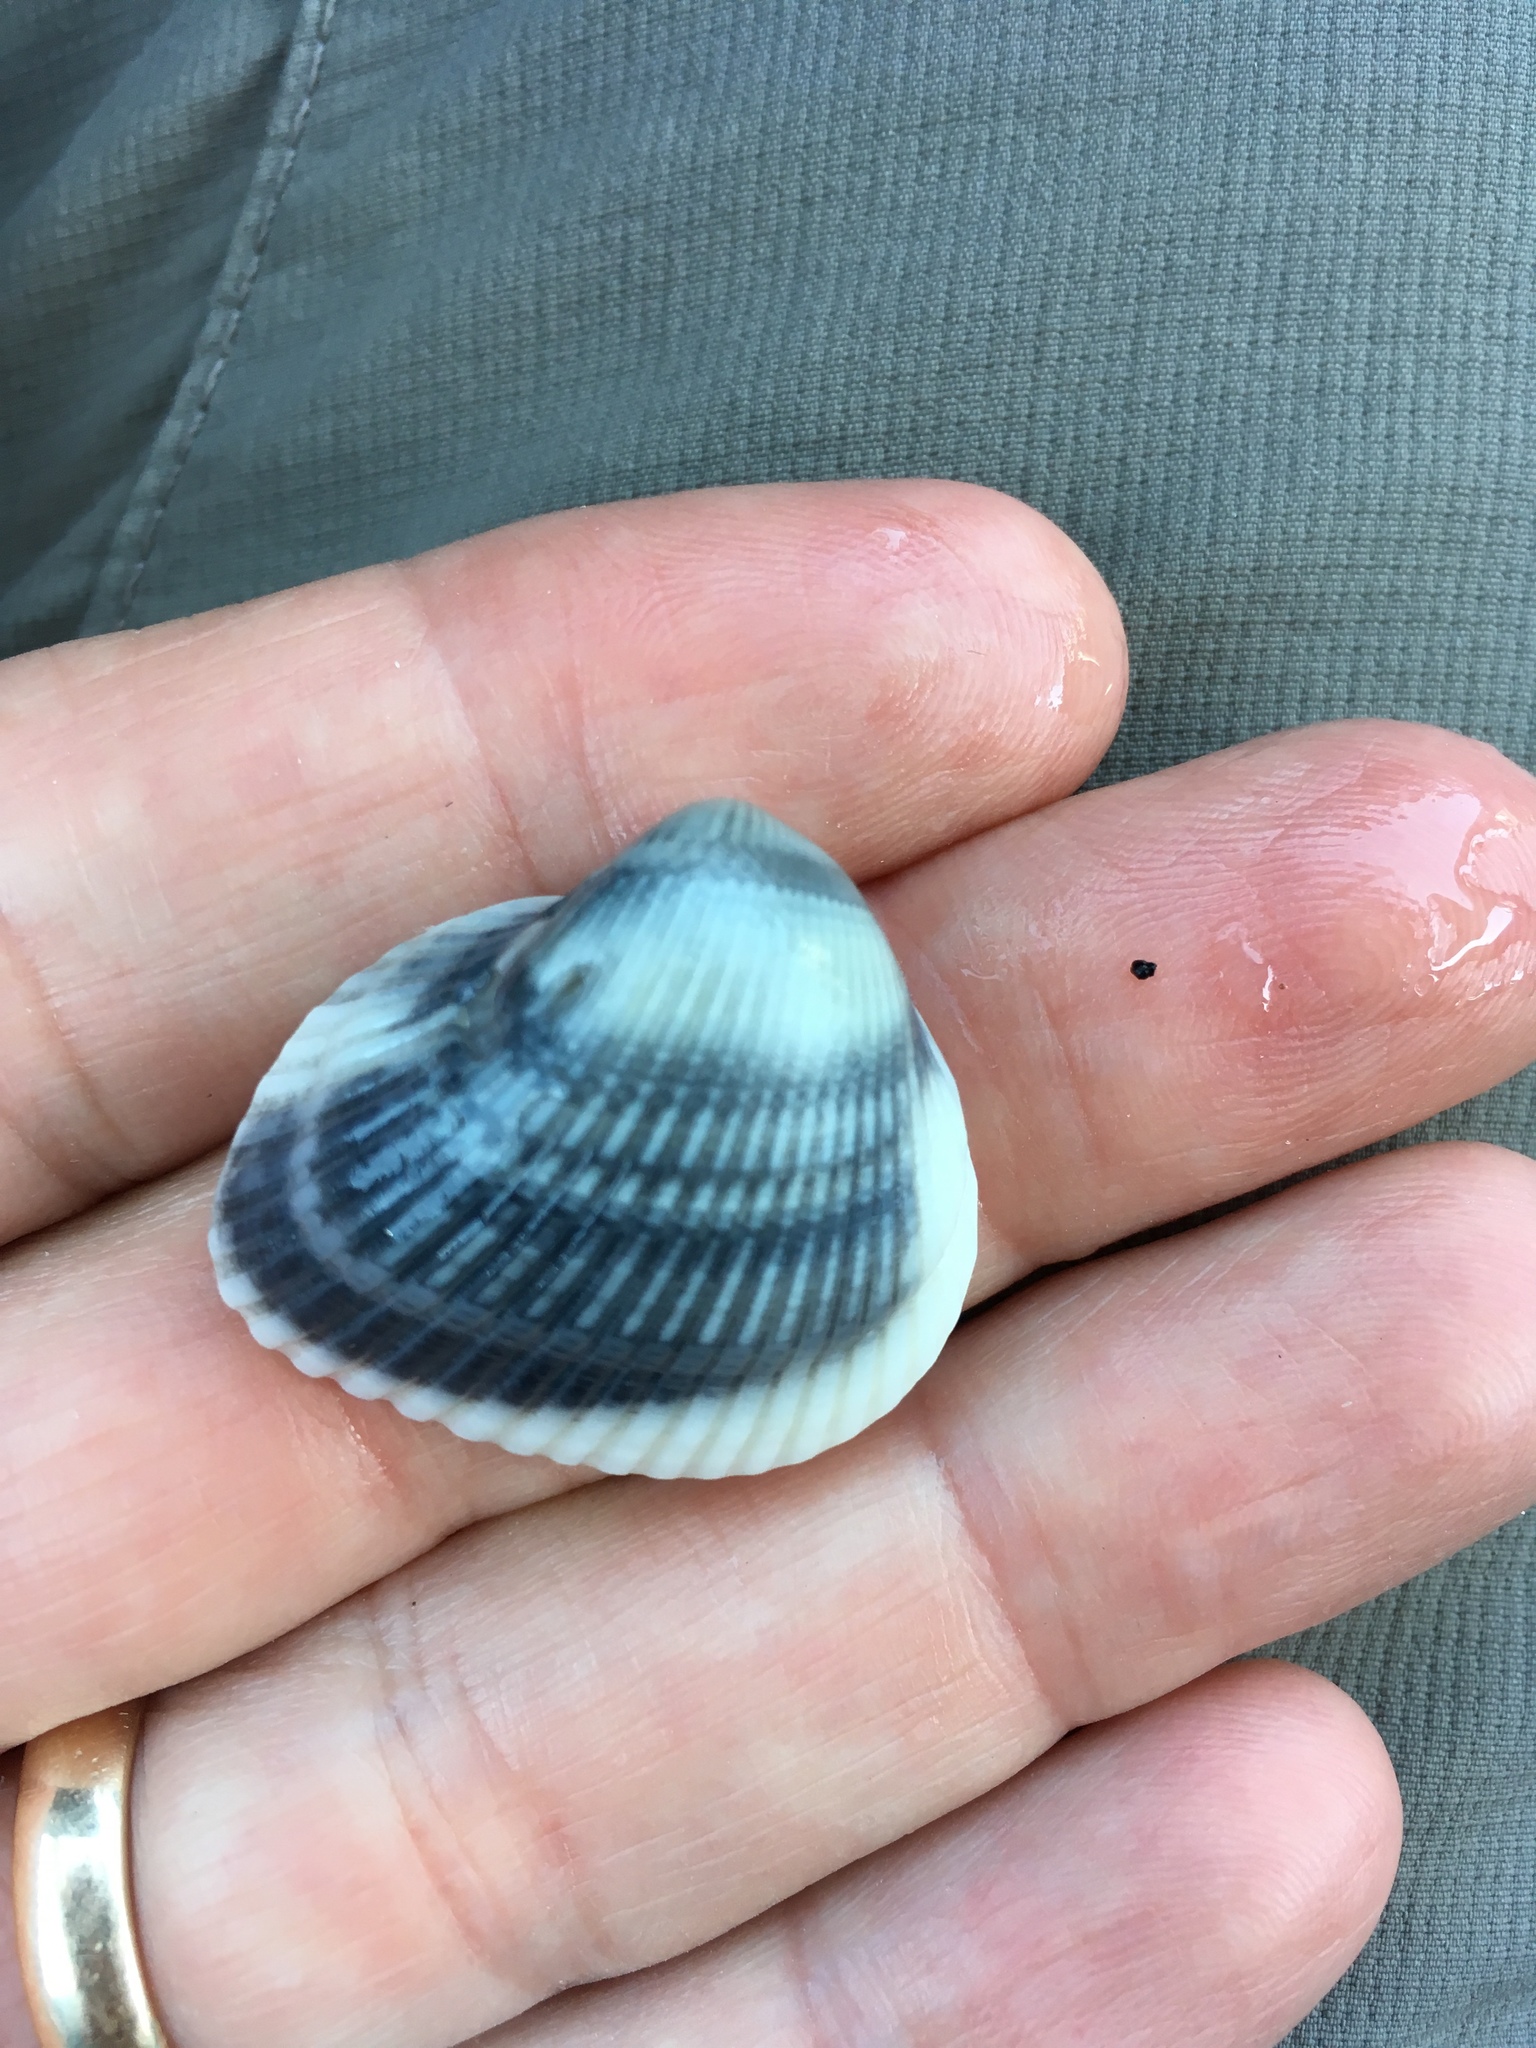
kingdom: Animalia
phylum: Mollusca
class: Bivalvia
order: Arcida
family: Noetiidae
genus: Noetia
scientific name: Noetia ponderosa
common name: Ponderous ark
